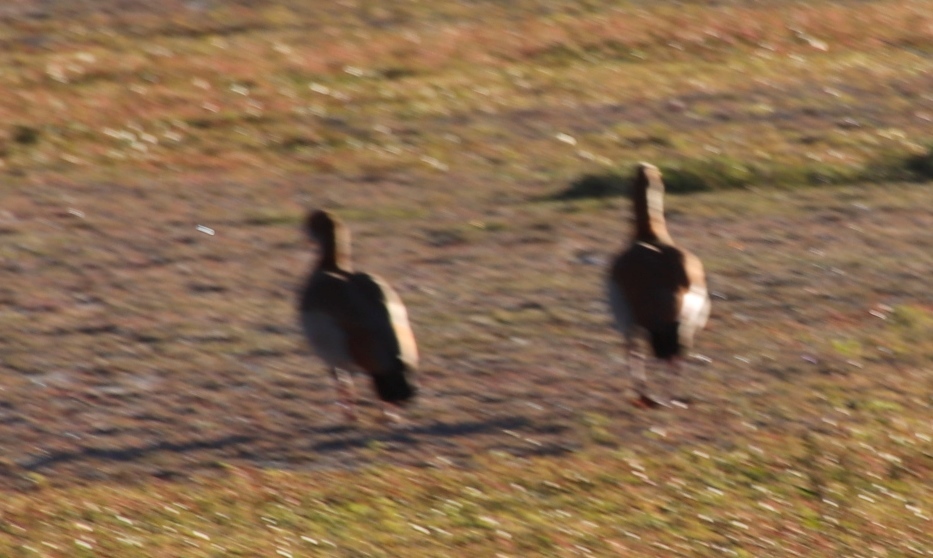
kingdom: Animalia
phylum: Chordata
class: Aves
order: Anseriformes
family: Anatidae
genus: Alopochen
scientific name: Alopochen aegyptiaca
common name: Egyptian goose
